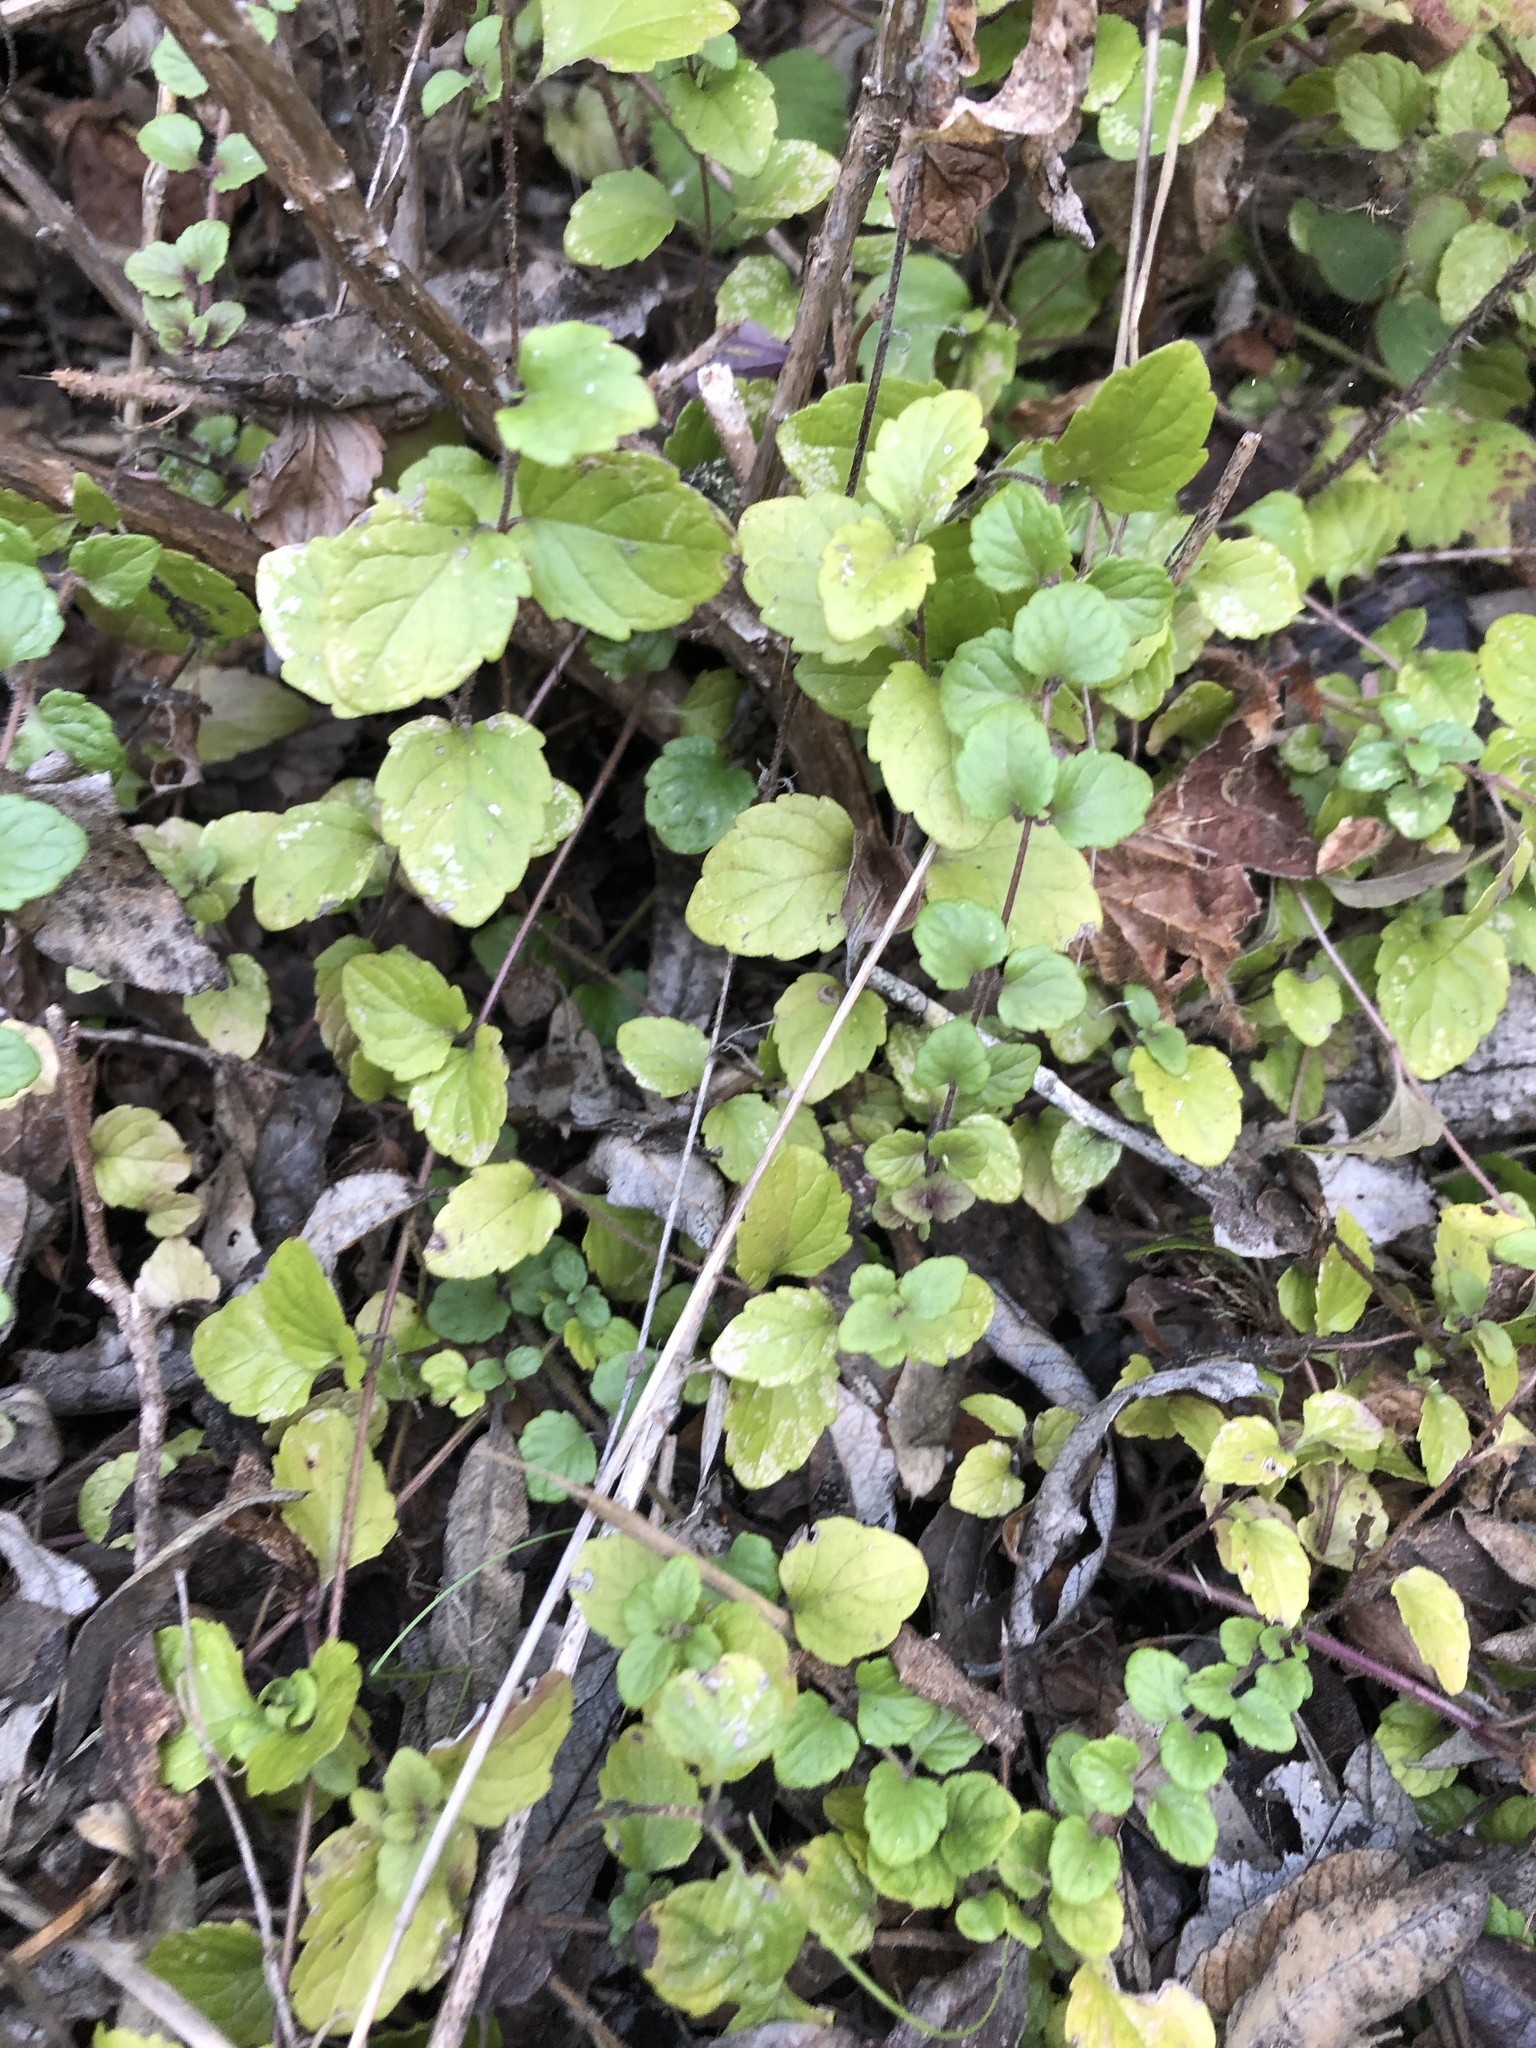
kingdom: Plantae
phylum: Tracheophyta
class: Magnoliopsida
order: Lamiales
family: Lamiaceae
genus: Micromeria
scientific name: Micromeria douglasii
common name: Yerba buena
